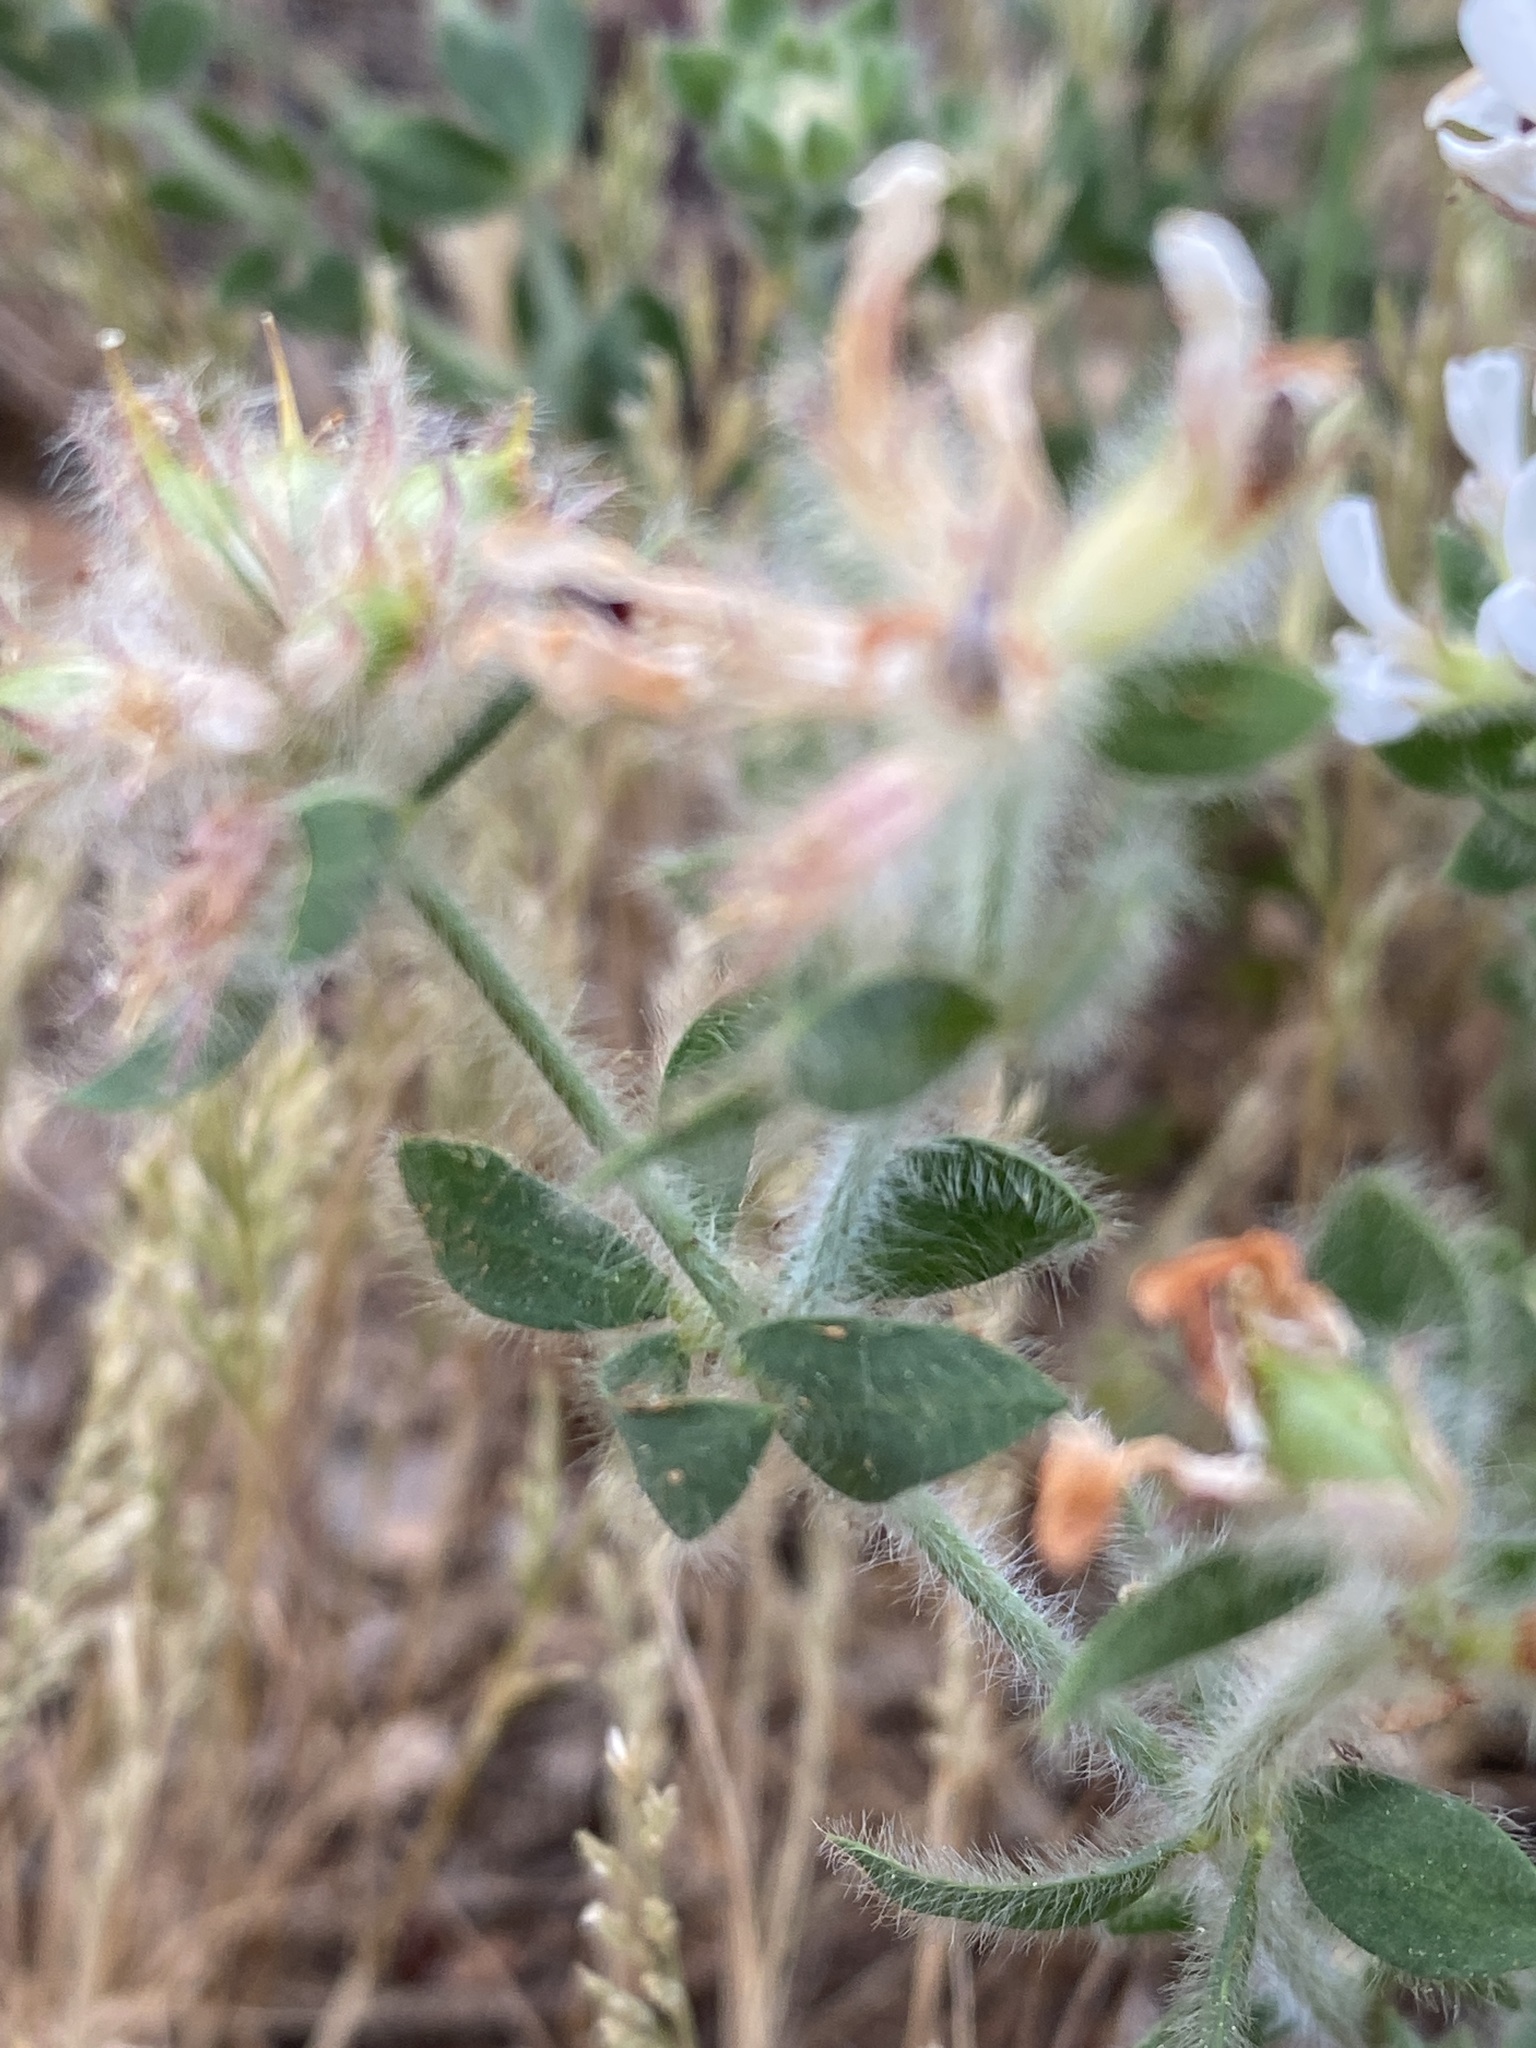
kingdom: Plantae
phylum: Tracheophyta
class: Magnoliopsida
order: Fabales
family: Fabaceae
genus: Lotus
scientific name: Lotus hirsutus
